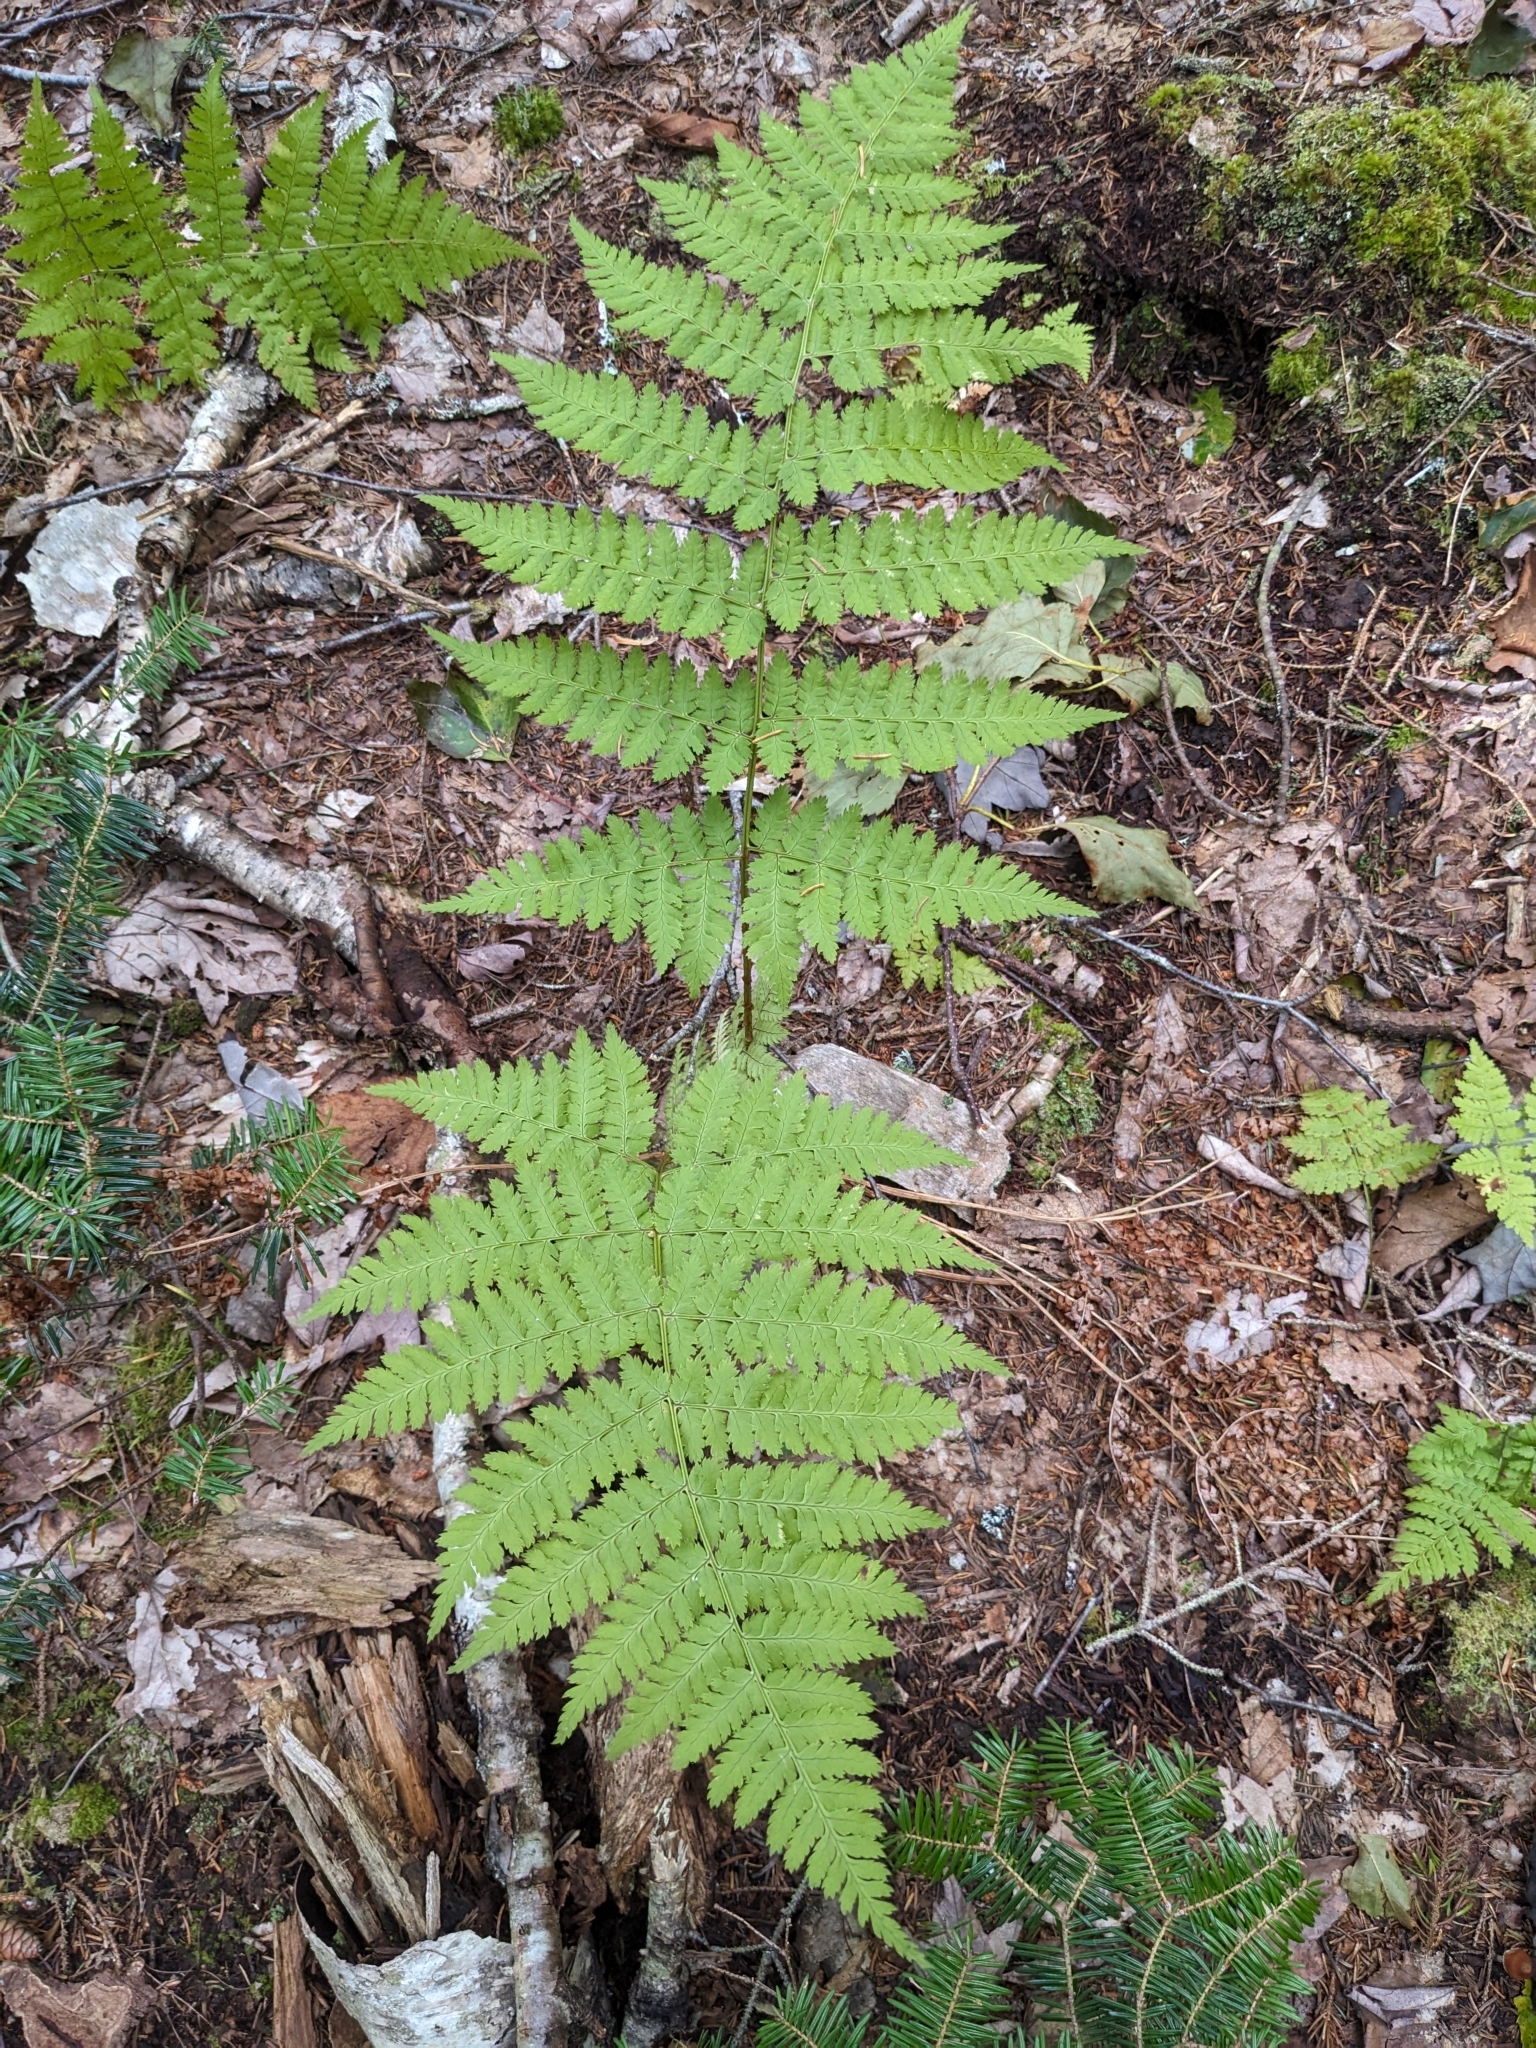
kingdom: Plantae
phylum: Tracheophyta
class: Polypodiopsida
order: Polypodiales
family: Dryopteridaceae
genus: Dryopteris
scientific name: Dryopteris campyloptera
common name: Mountain wood fern
